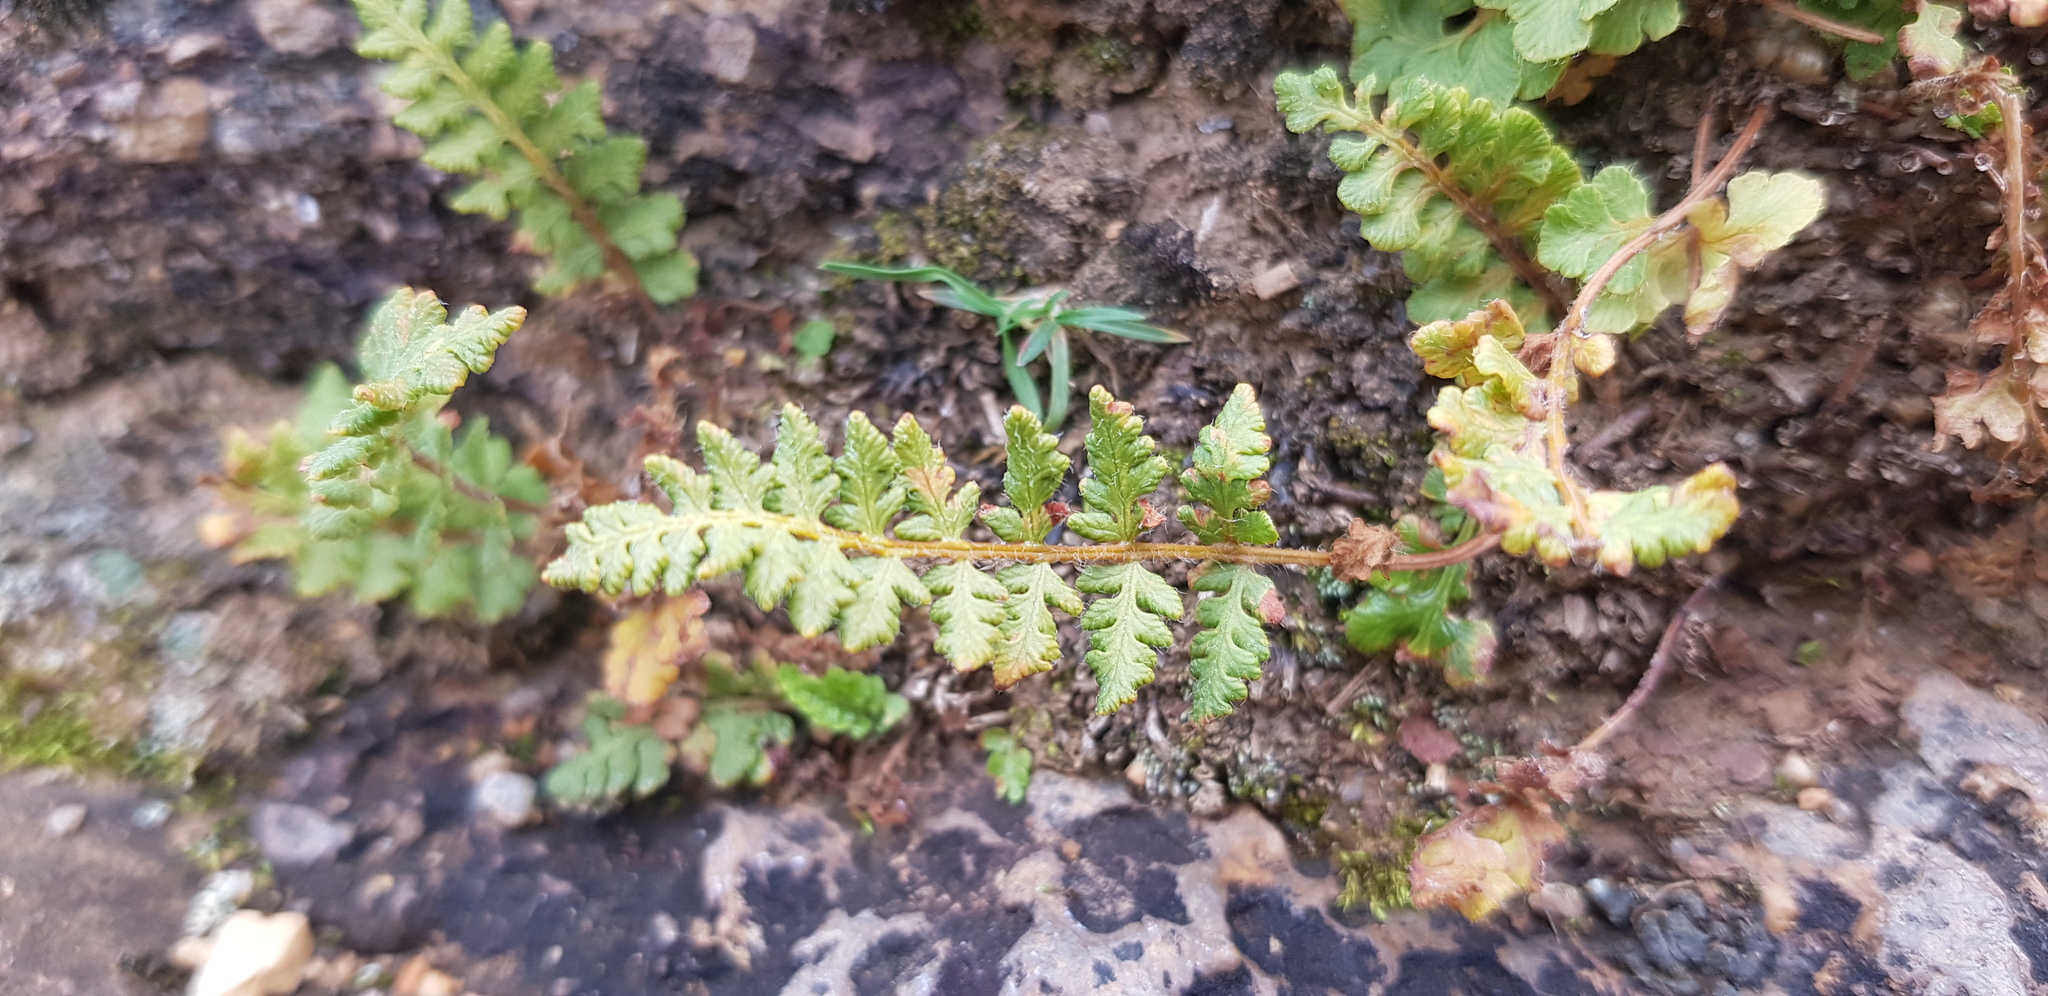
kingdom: Plantae
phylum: Tracheophyta
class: Polypodiopsida
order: Polypodiales
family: Woodsiaceae
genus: Woodsia
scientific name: Woodsia ilvensis
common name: Fragrant woodsia
